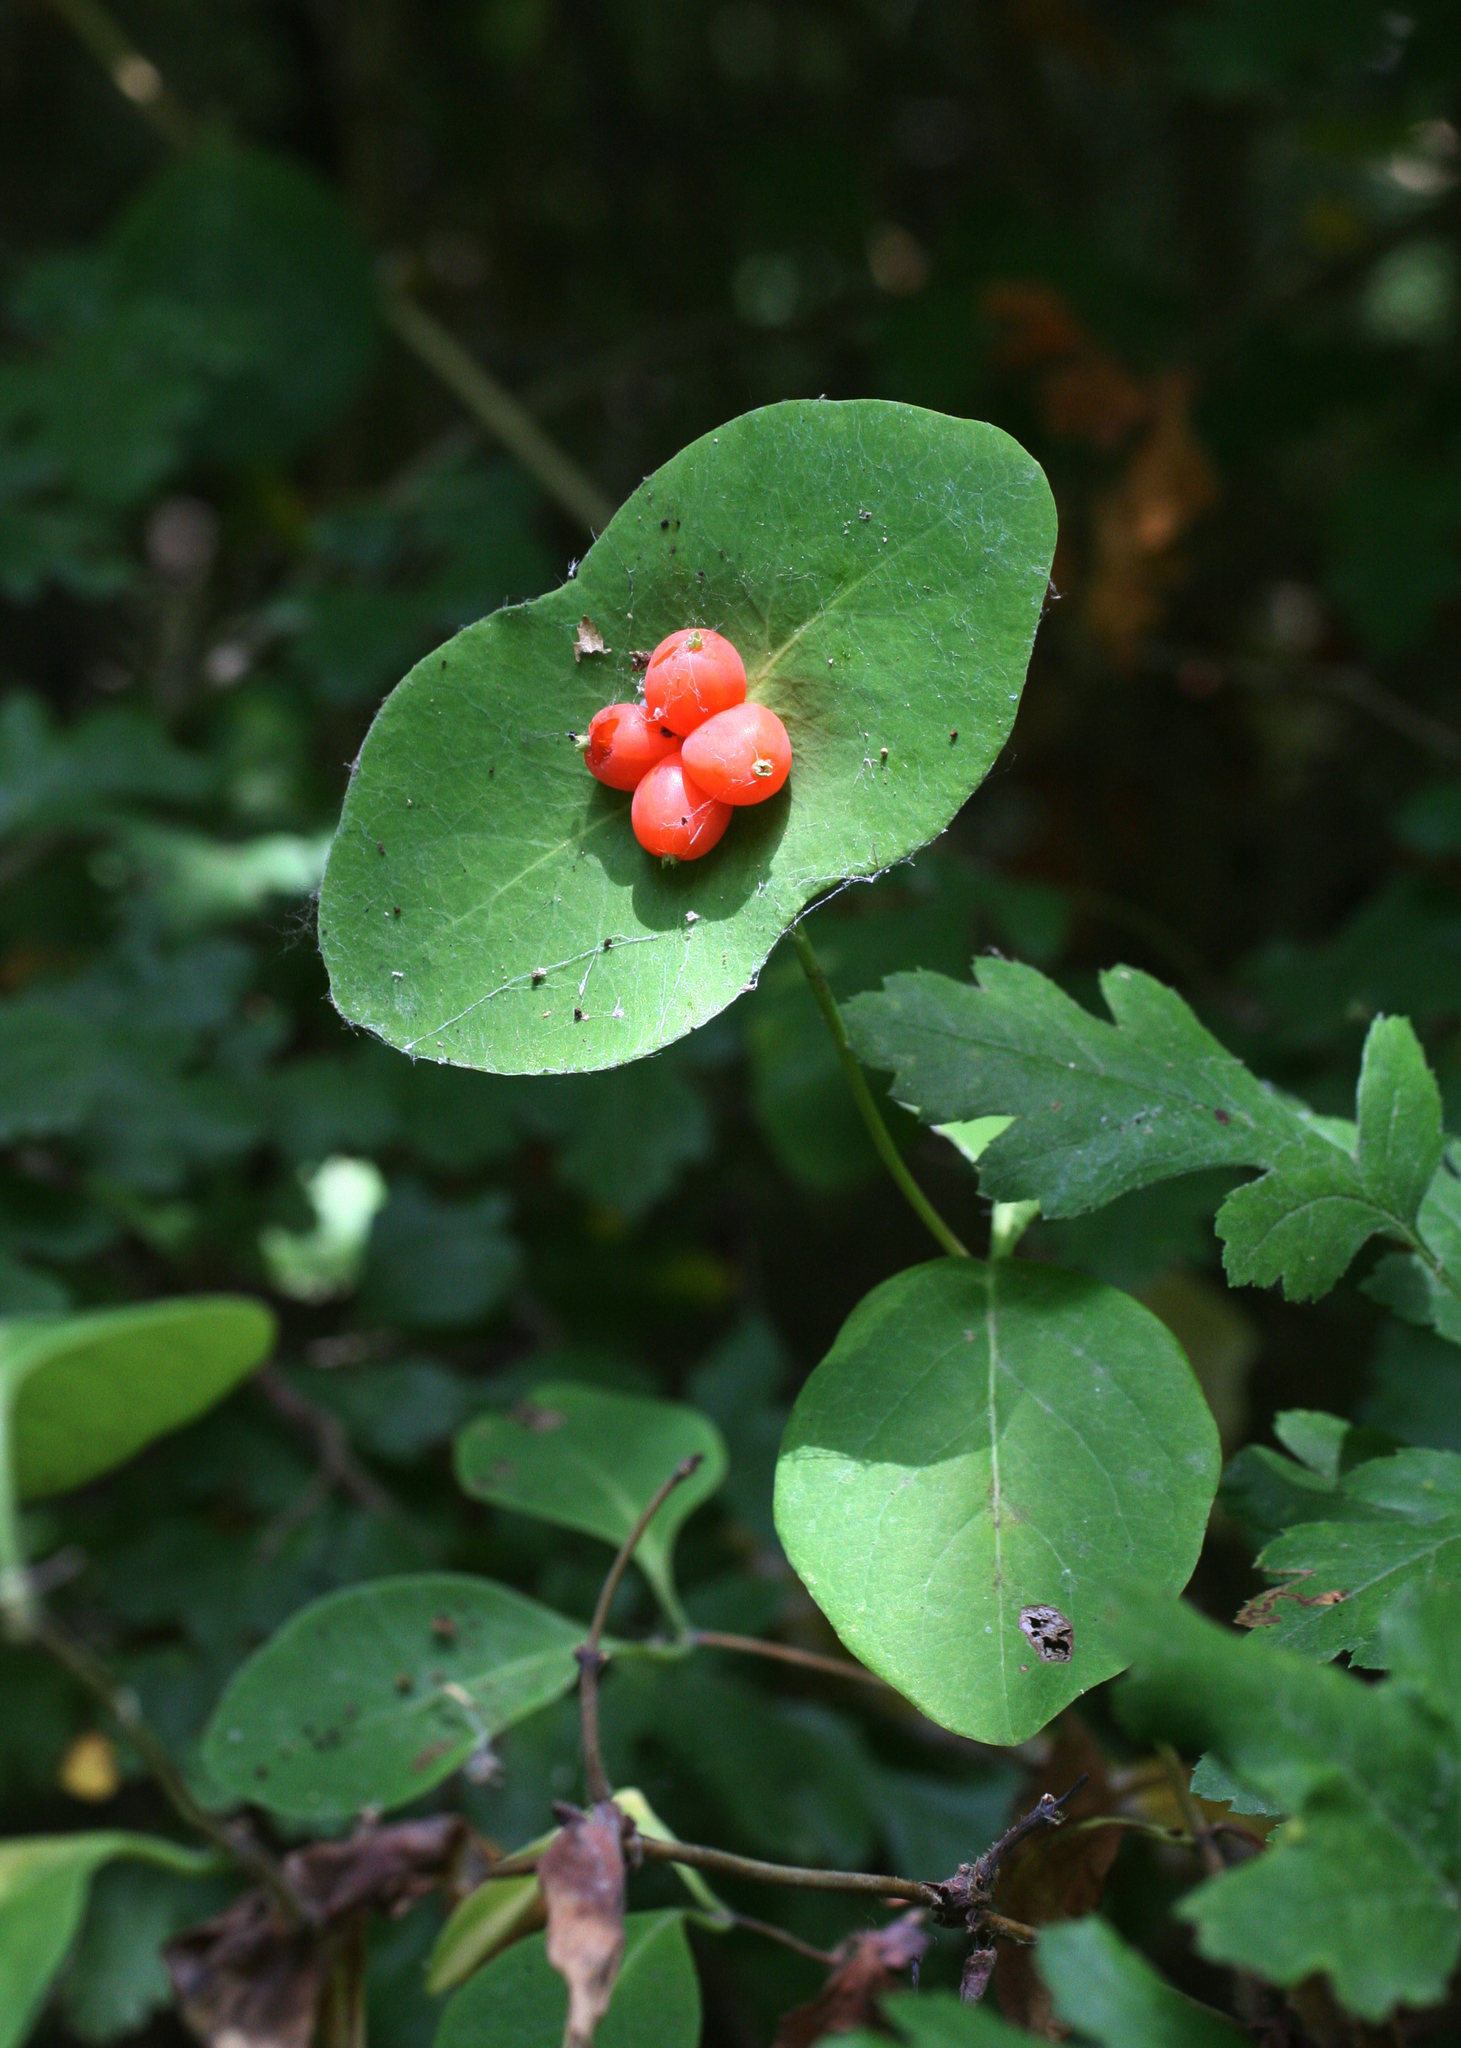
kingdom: Plantae
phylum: Tracheophyta
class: Magnoliopsida
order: Dipsacales
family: Caprifoliaceae
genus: Lonicera
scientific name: Lonicera caprifolium
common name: Perfoliate honeysuckle
